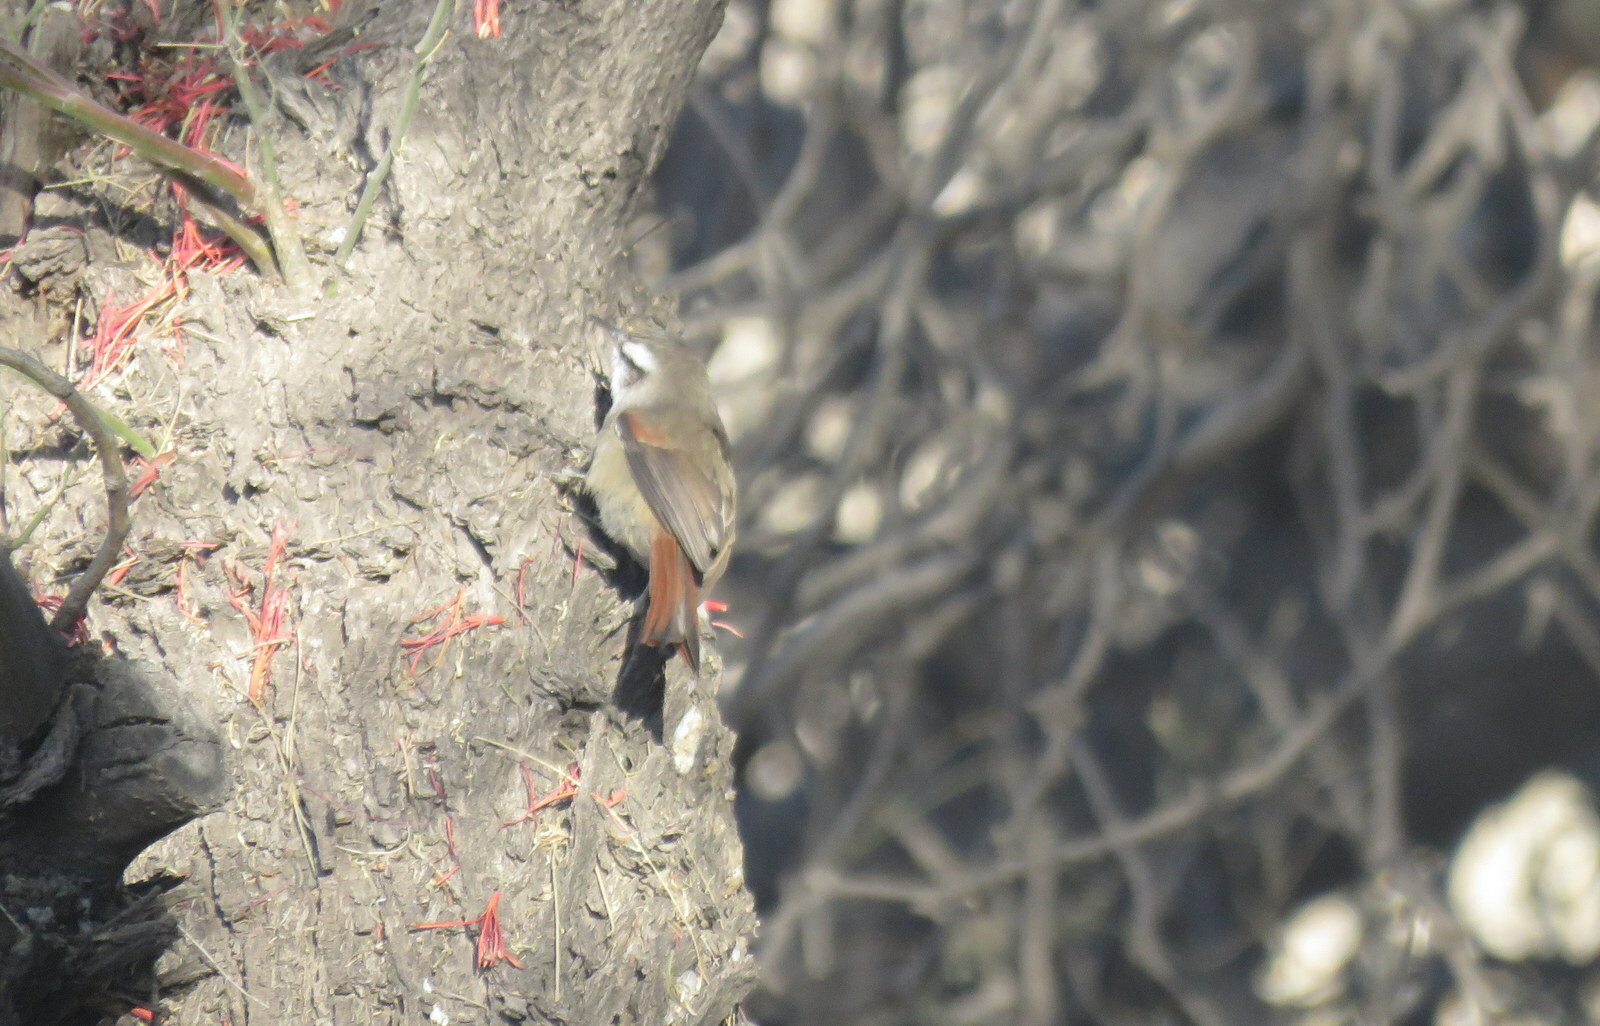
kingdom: Animalia
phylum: Chordata
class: Aves
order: Passeriformes
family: Furnariidae
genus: Cranioleuca
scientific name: Cranioleuca pyrrhophia
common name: Stripe-crowned spinetail
